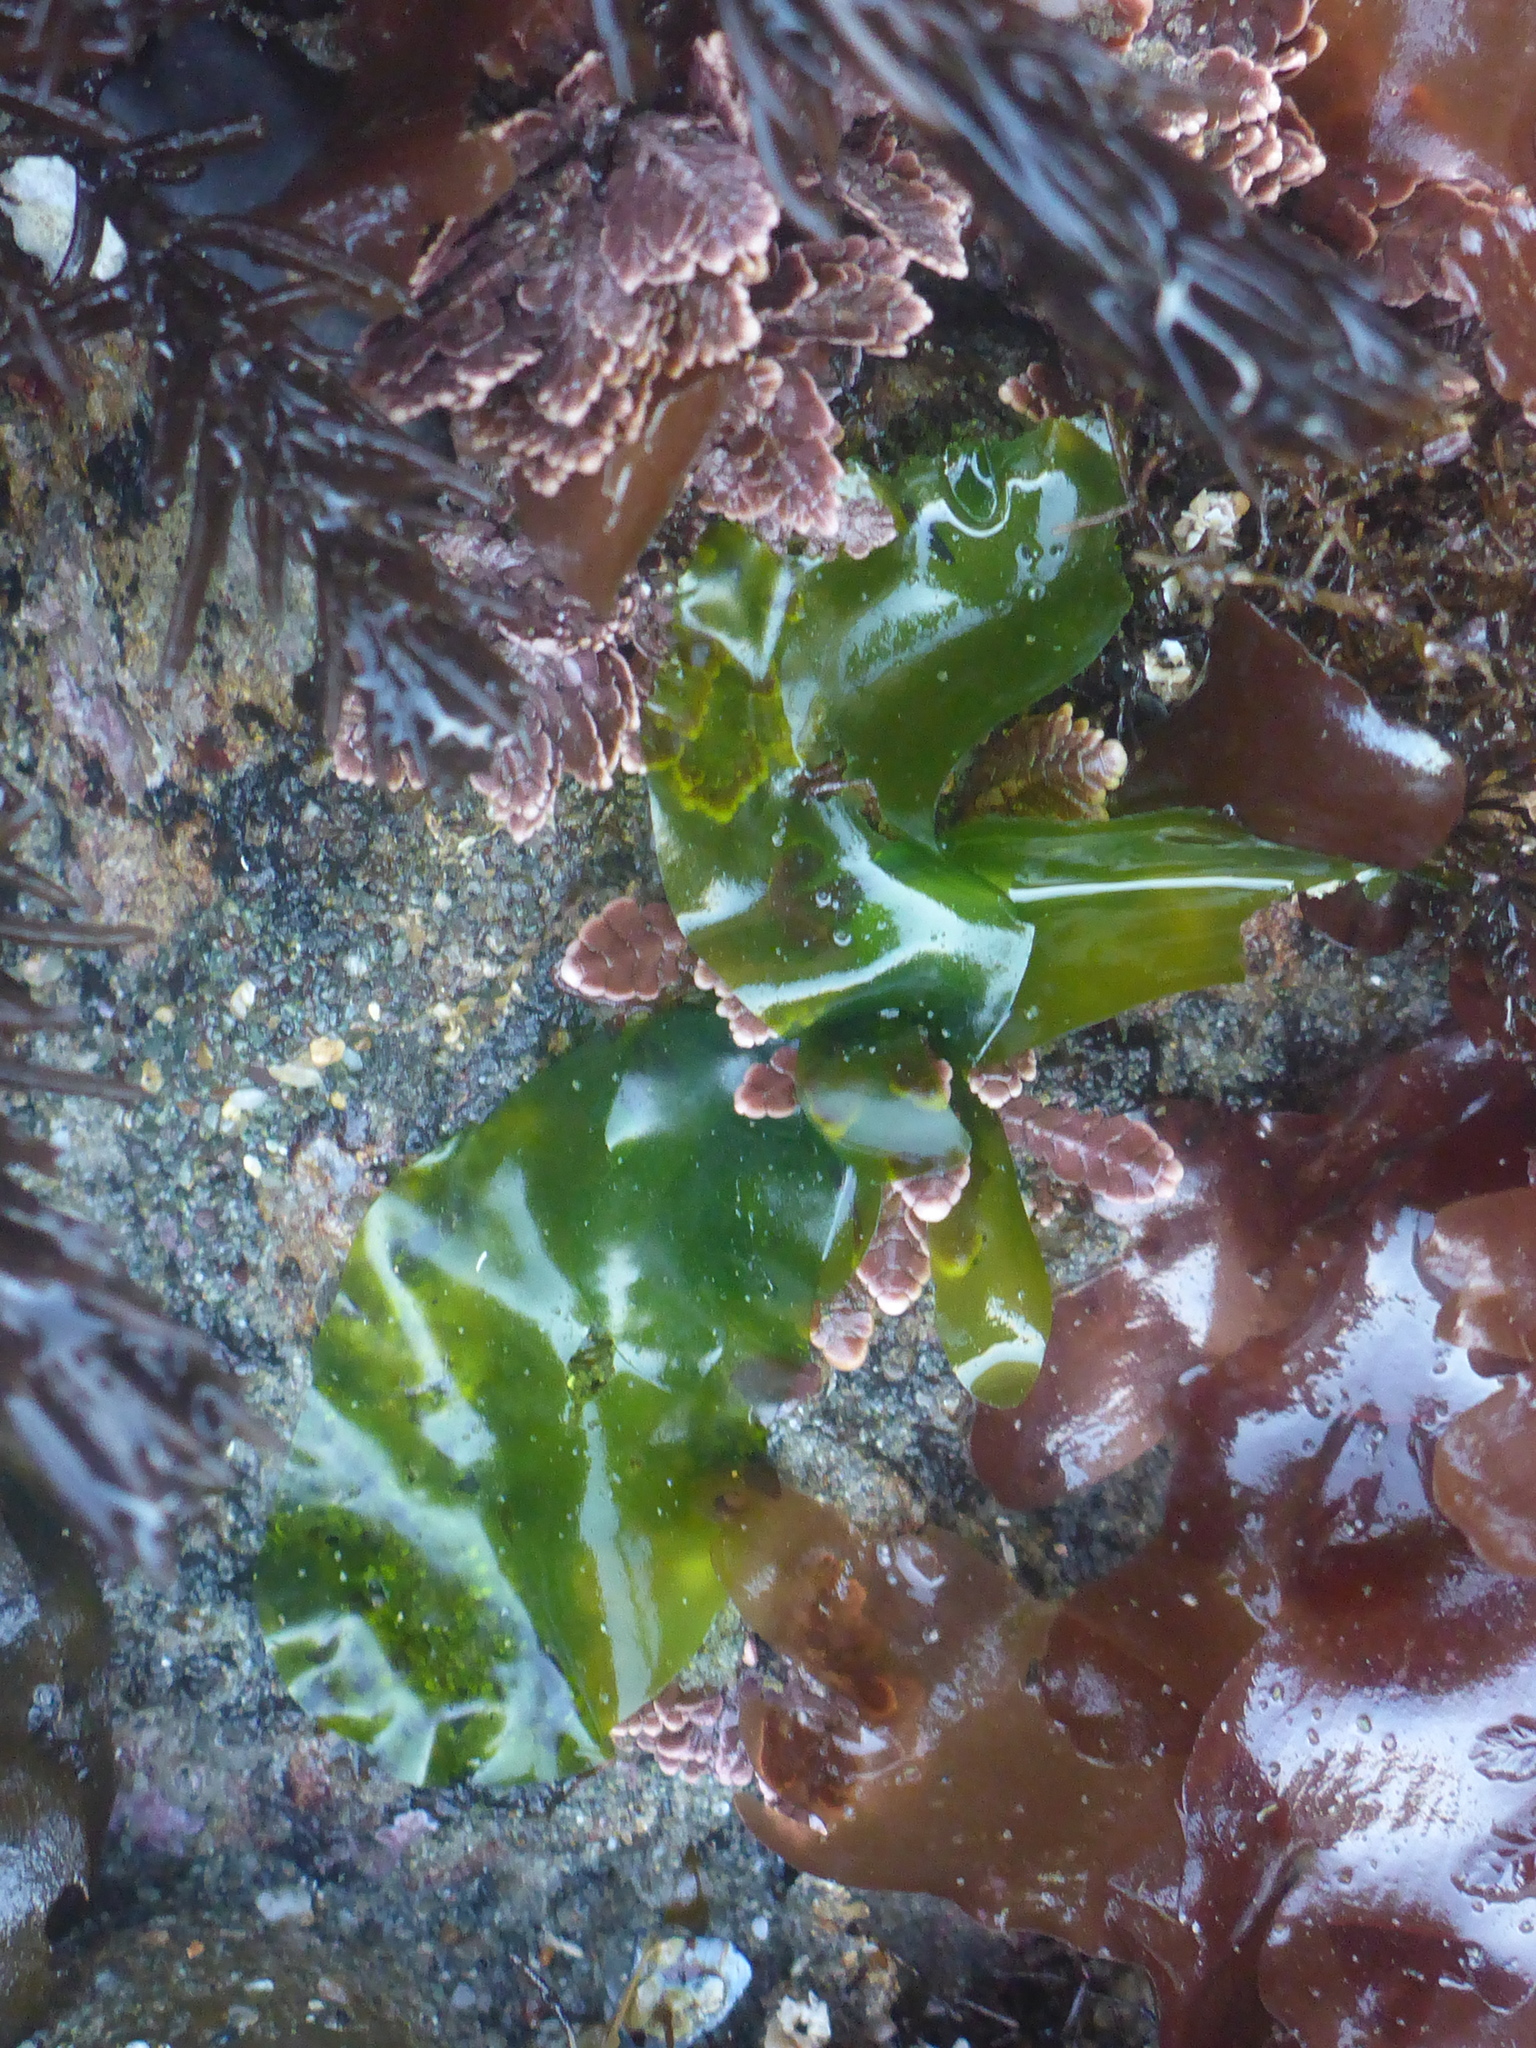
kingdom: Plantae
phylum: Chlorophyta
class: Ulvophyceae
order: Ulvales
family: Ulvaceae
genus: Ulva
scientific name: Ulva lactuca
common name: Sea lettuce
